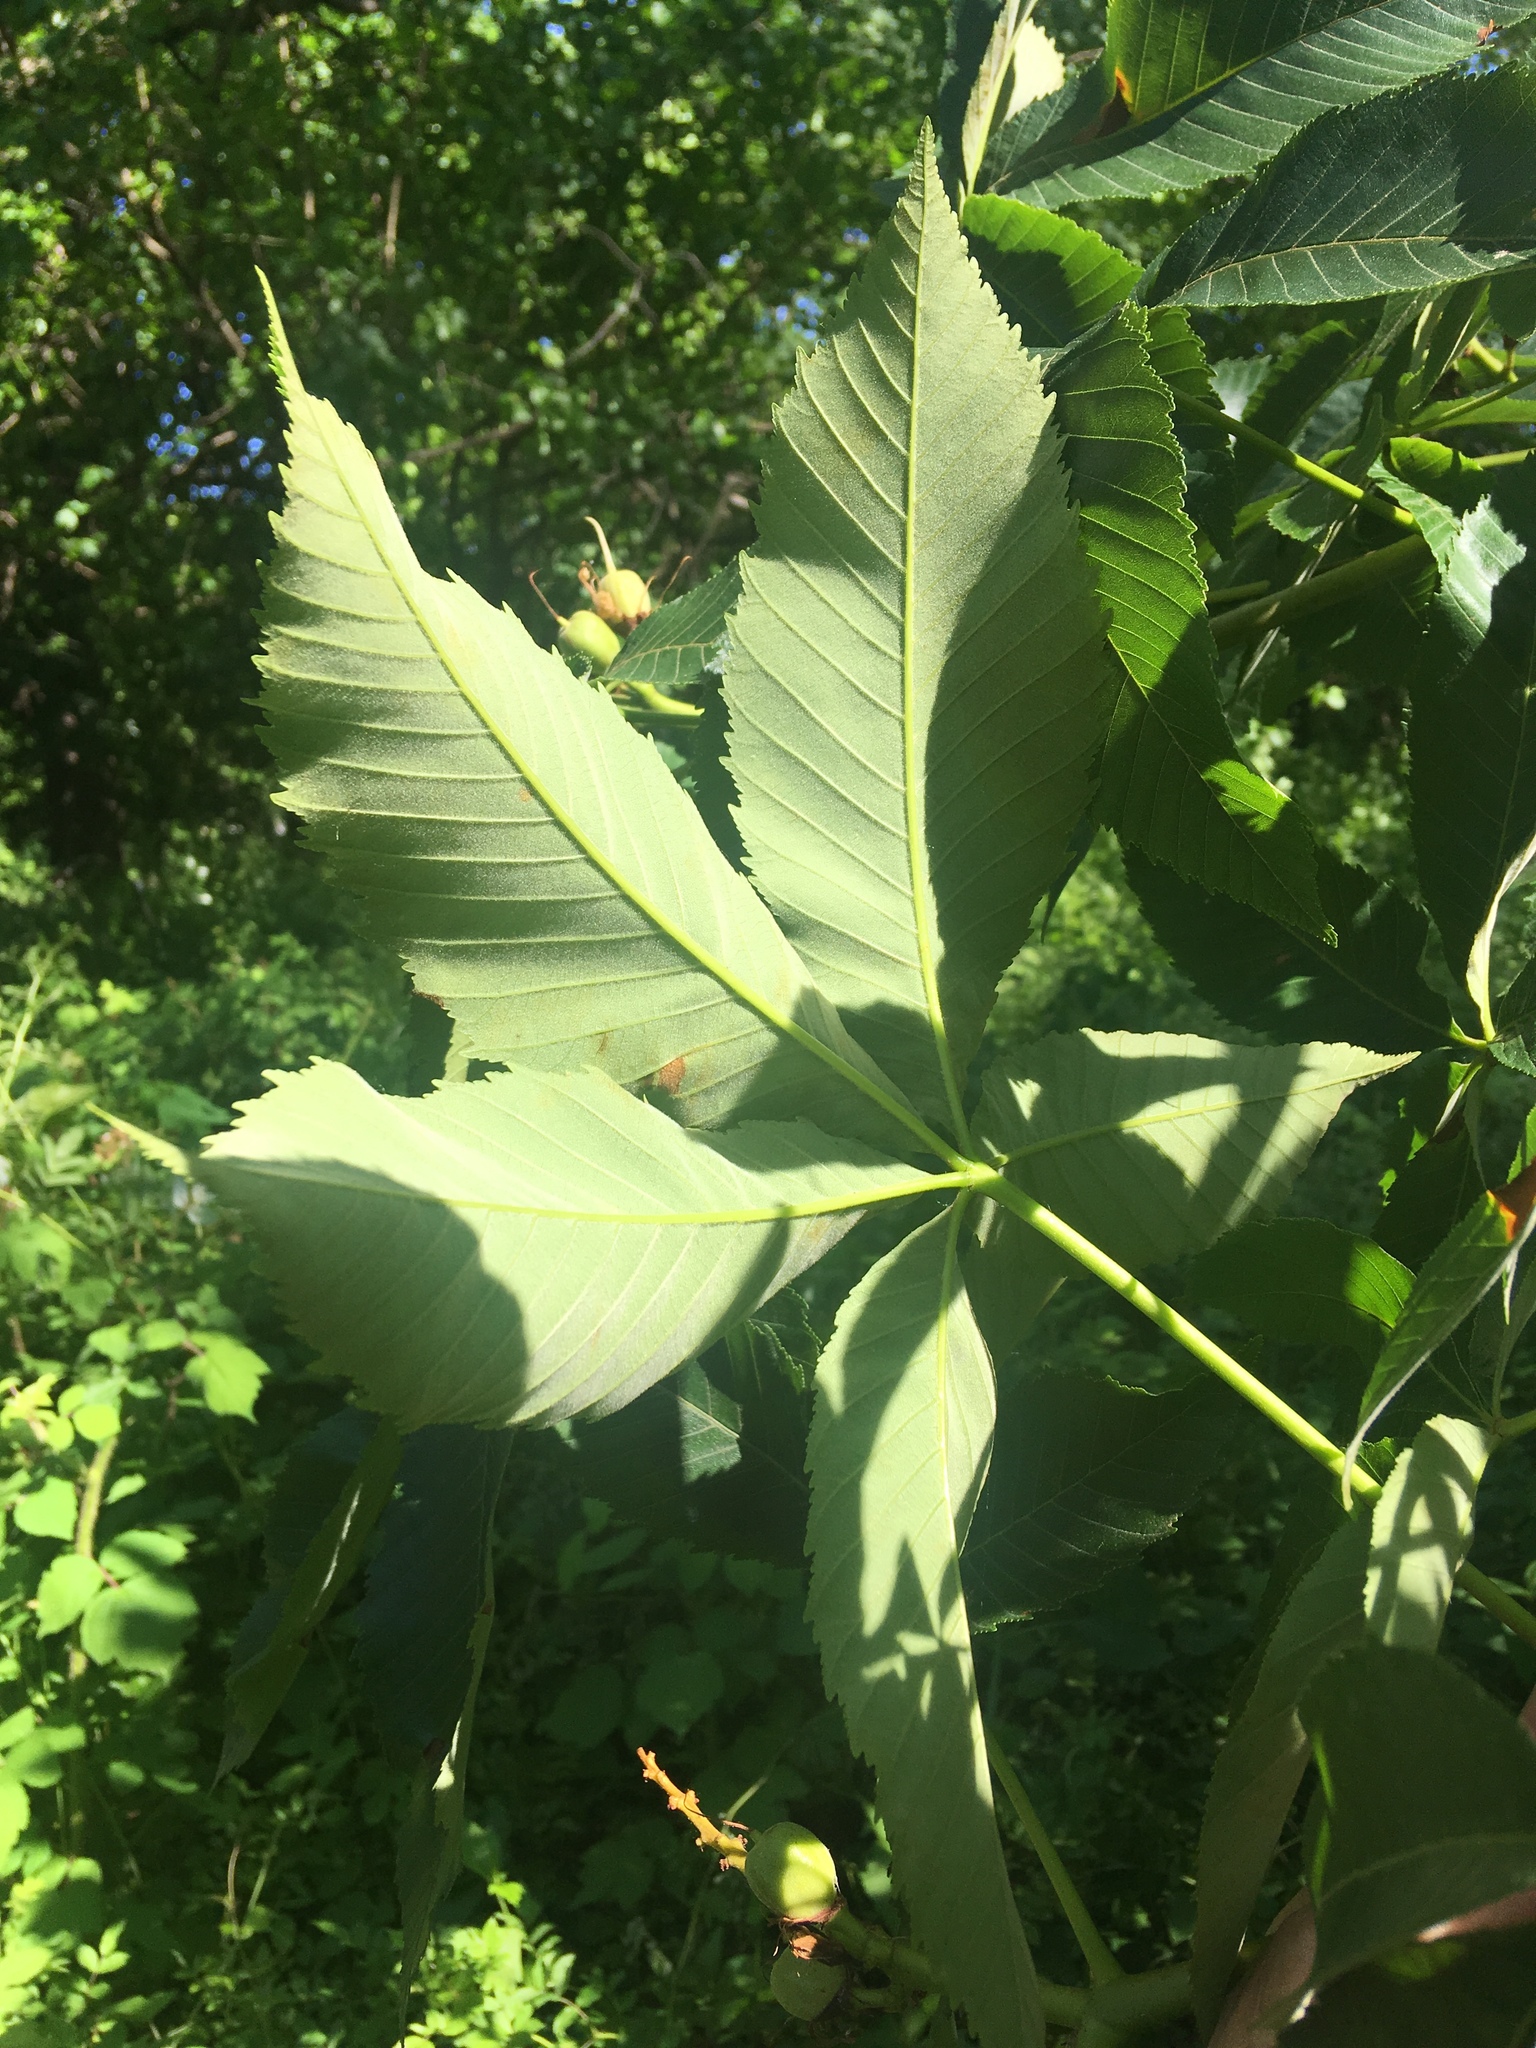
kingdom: Plantae
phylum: Tracheophyta
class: Magnoliopsida
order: Sapindales
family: Sapindaceae
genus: Aesculus
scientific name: Aesculus glabra
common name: Ohio buckeye
